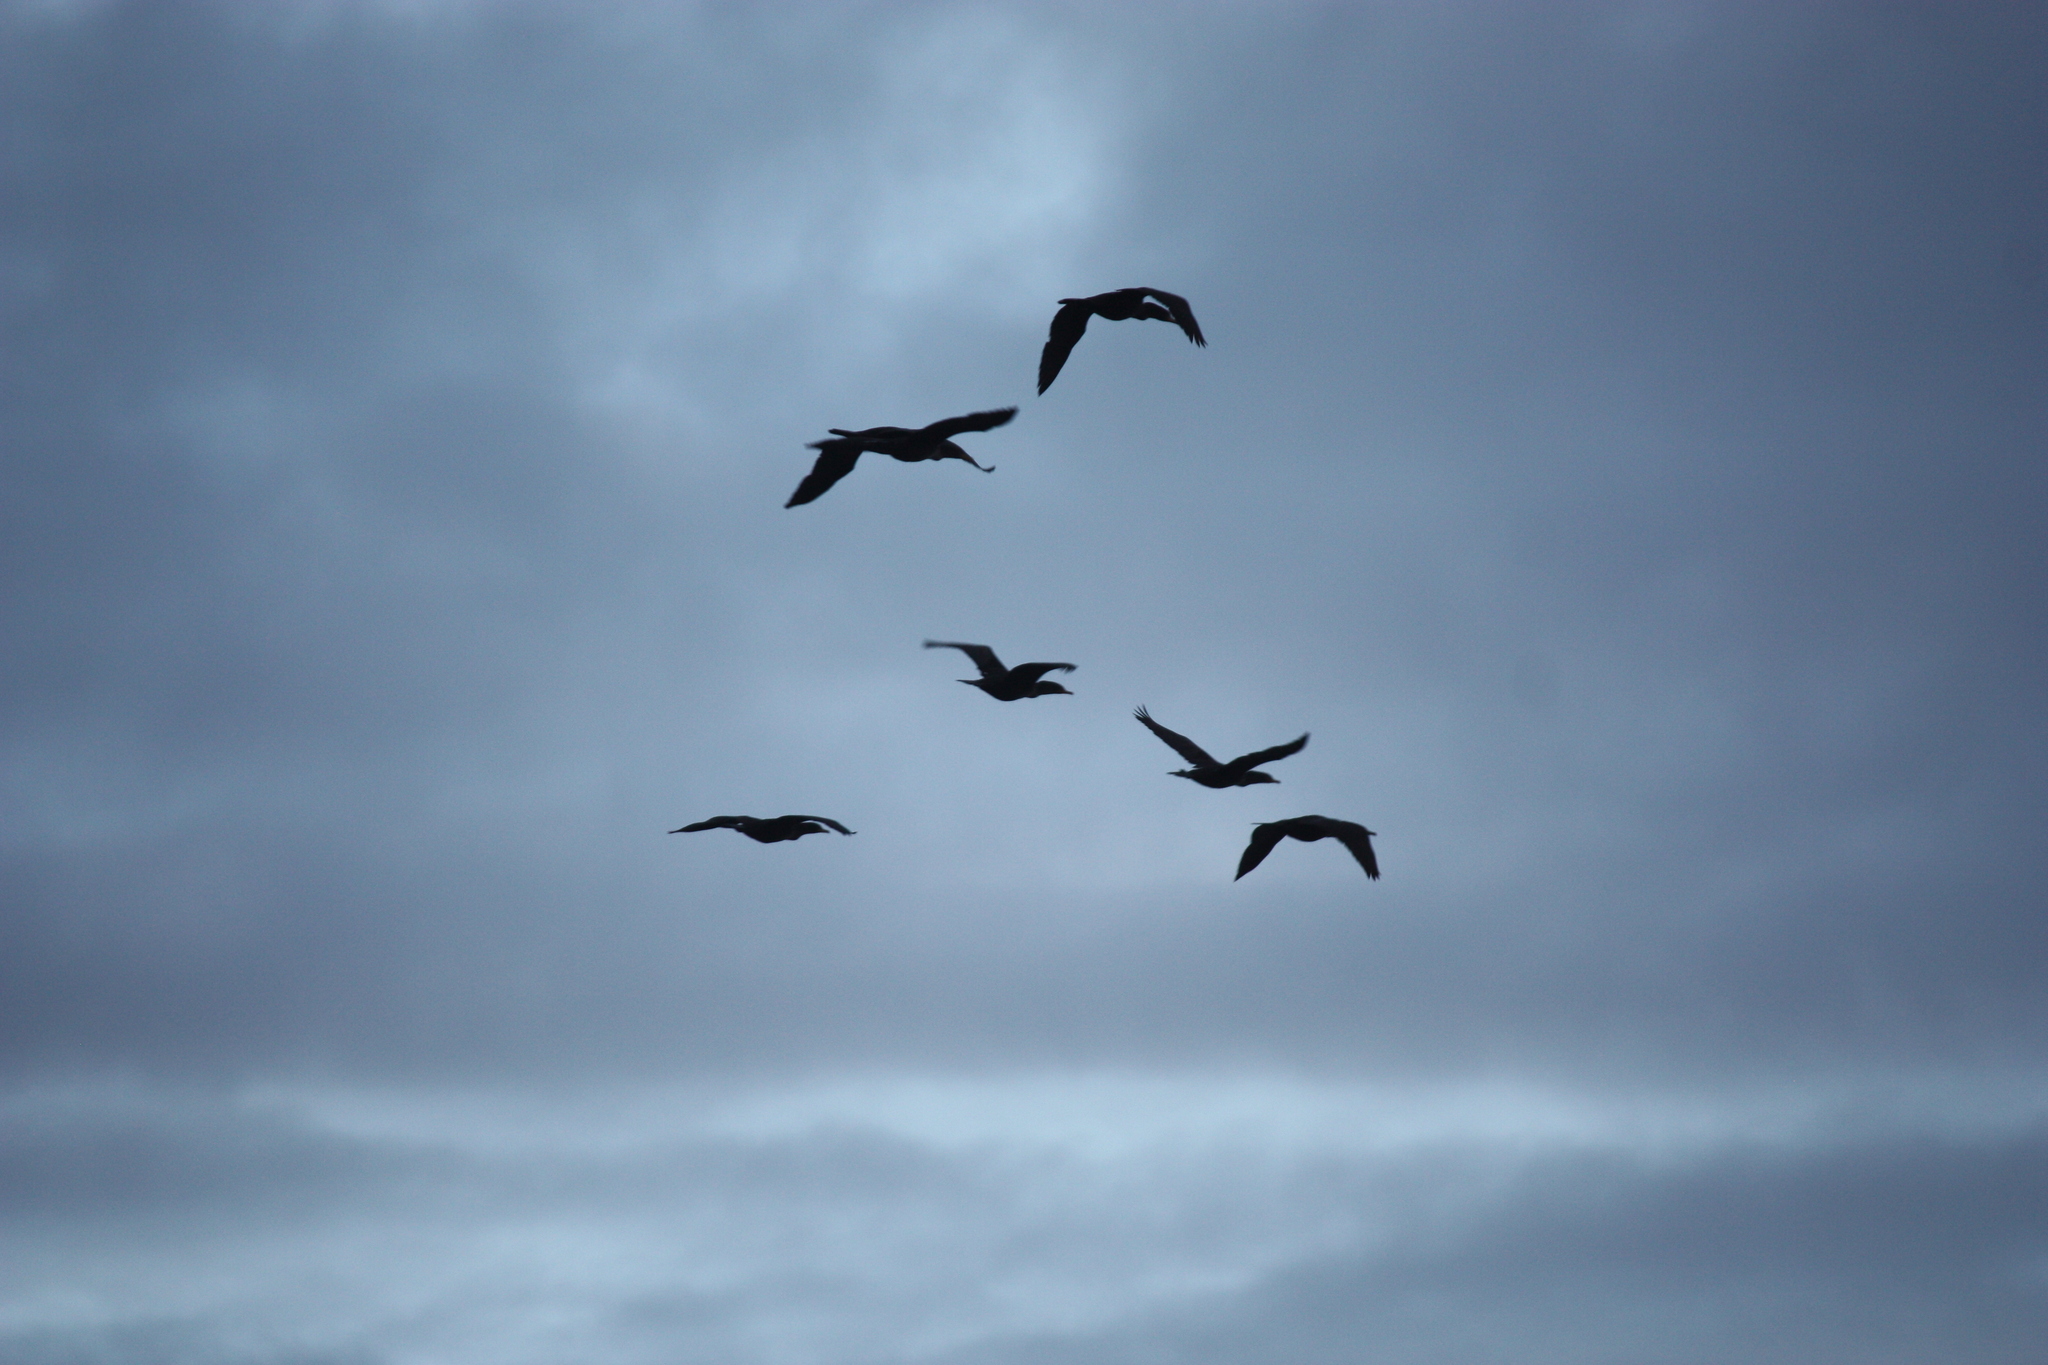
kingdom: Animalia
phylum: Chordata
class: Aves
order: Suliformes
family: Phalacrocoracidae
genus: Phalacrocorax
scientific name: Phalacrocorax auritus
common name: Double-crested cormorant
